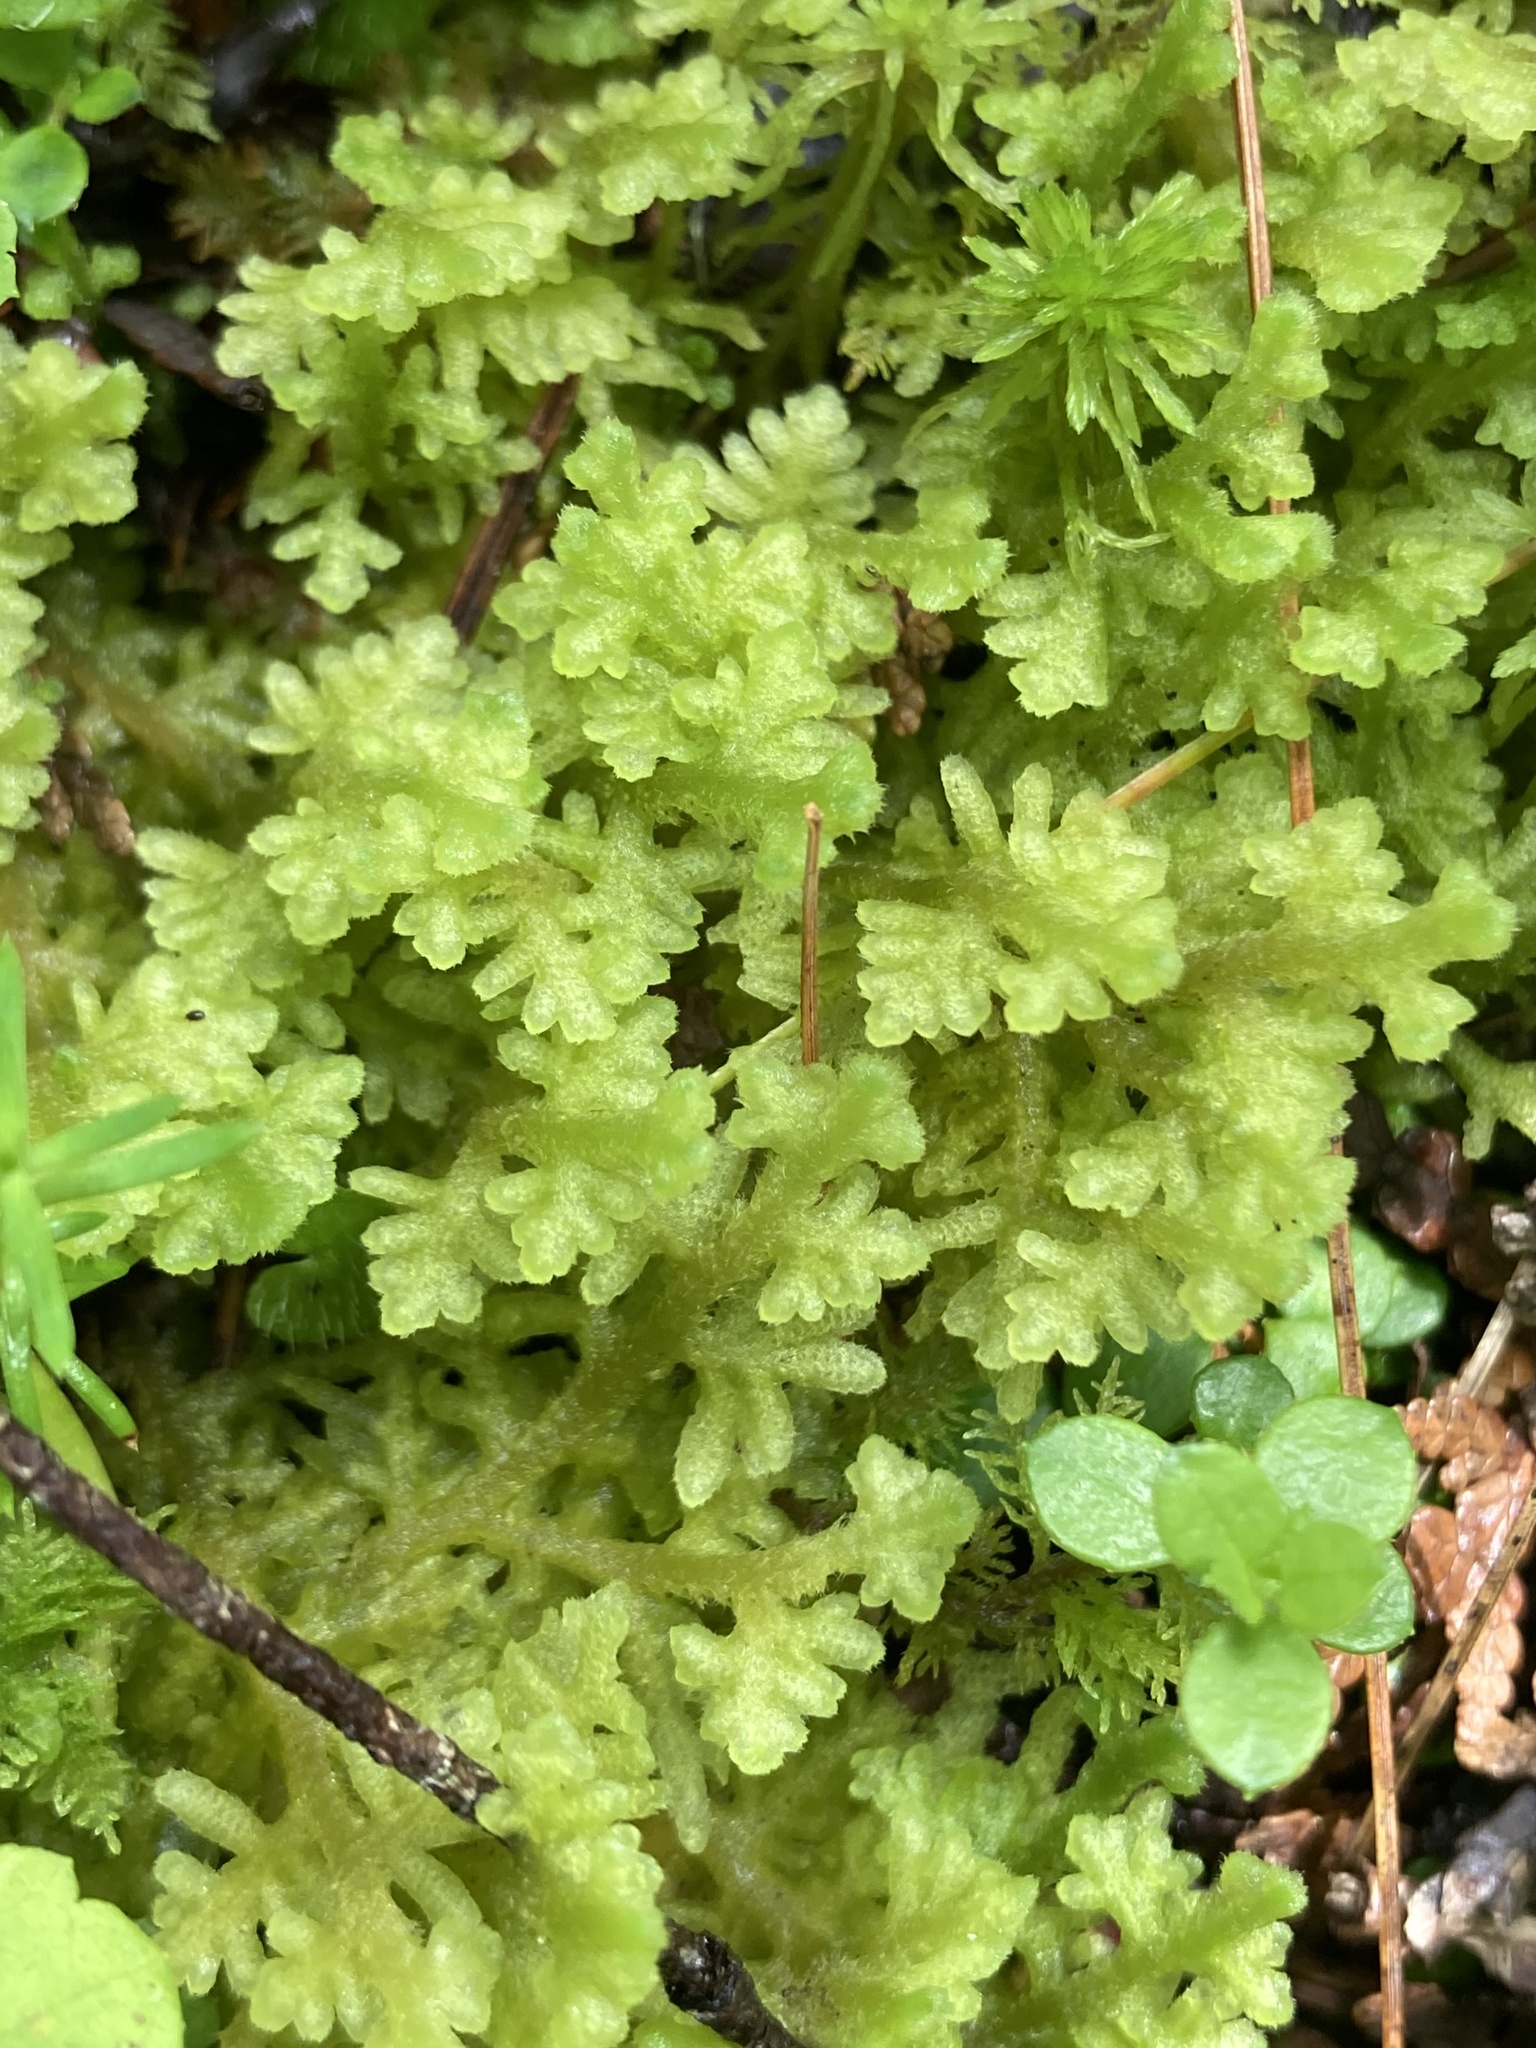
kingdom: Plantae
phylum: Marchantiophyta
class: Jungermanniopsida
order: Jungermanniales
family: Trichocoleaceae
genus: Trichocolea
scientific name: Trichocolea tomentella
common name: Woolly liverwort
